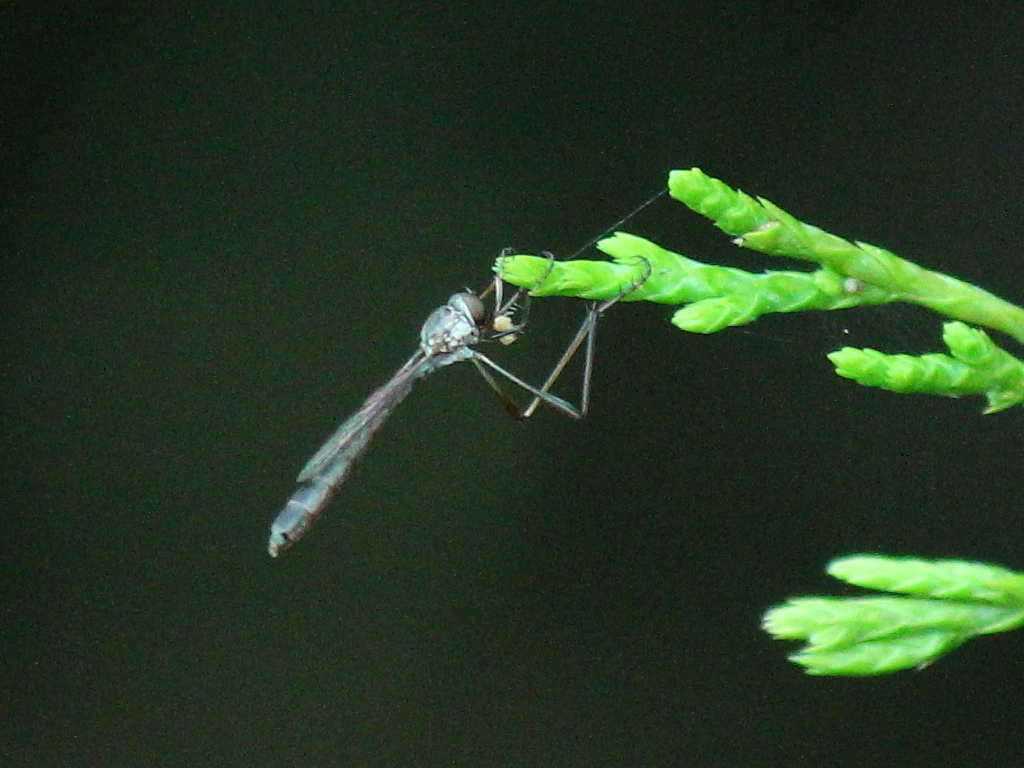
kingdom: Animalia
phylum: Arthropoda
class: Insecta
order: Diptera
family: Asilidae
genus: Apachekolos
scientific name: Apachekolos tenuipes
